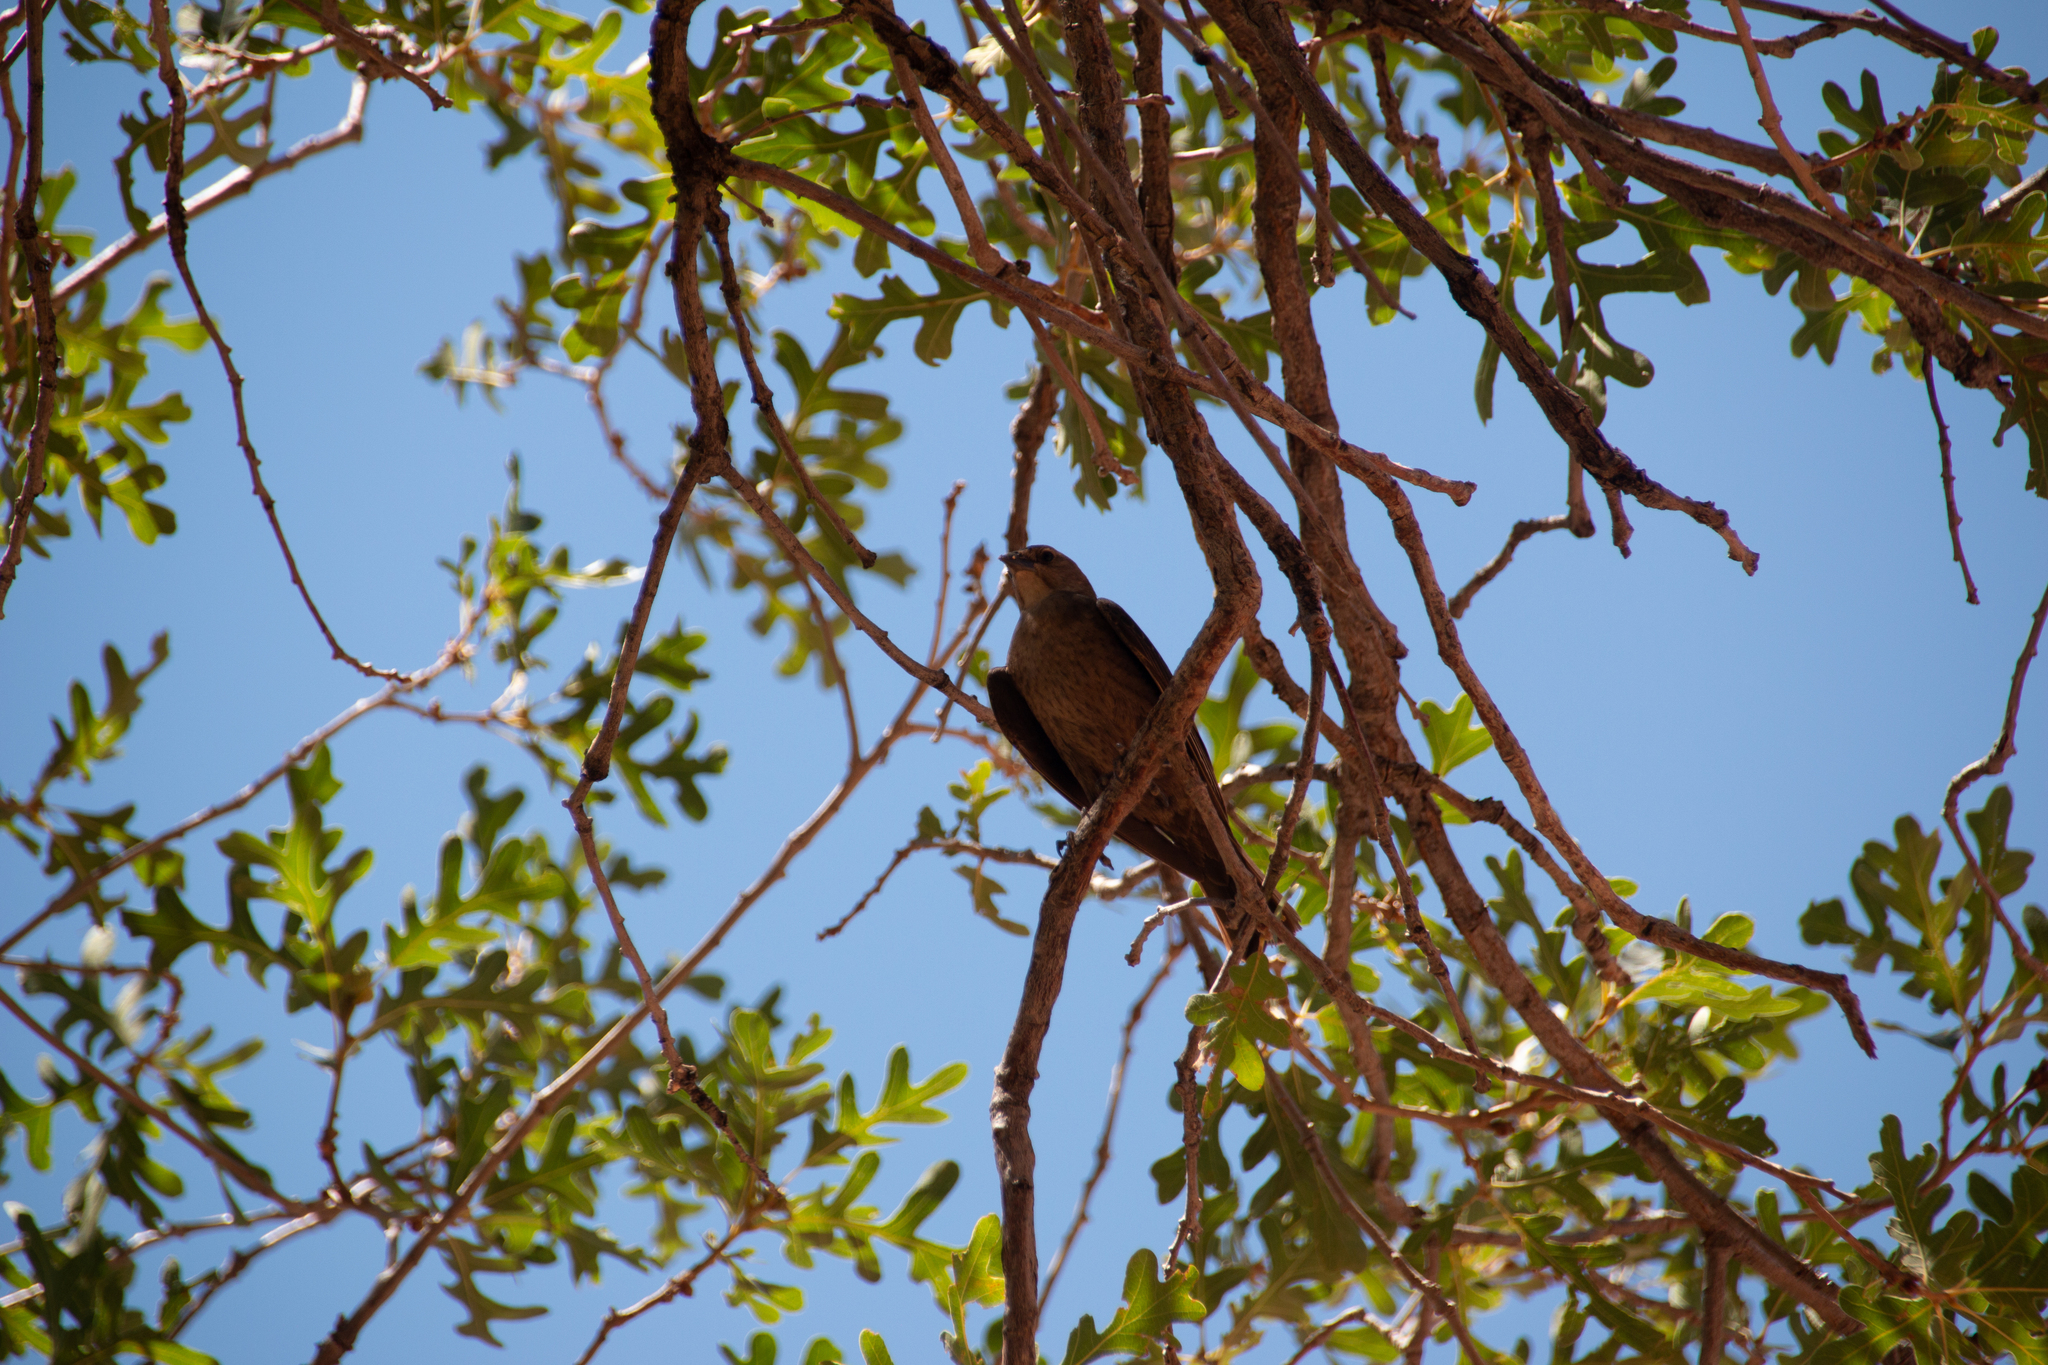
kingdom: Animalia
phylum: Chordata
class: Aves
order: Passeriformes
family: Icteridae
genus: Molothrus
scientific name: Molothrus ater
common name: Brown-headed cowbird
